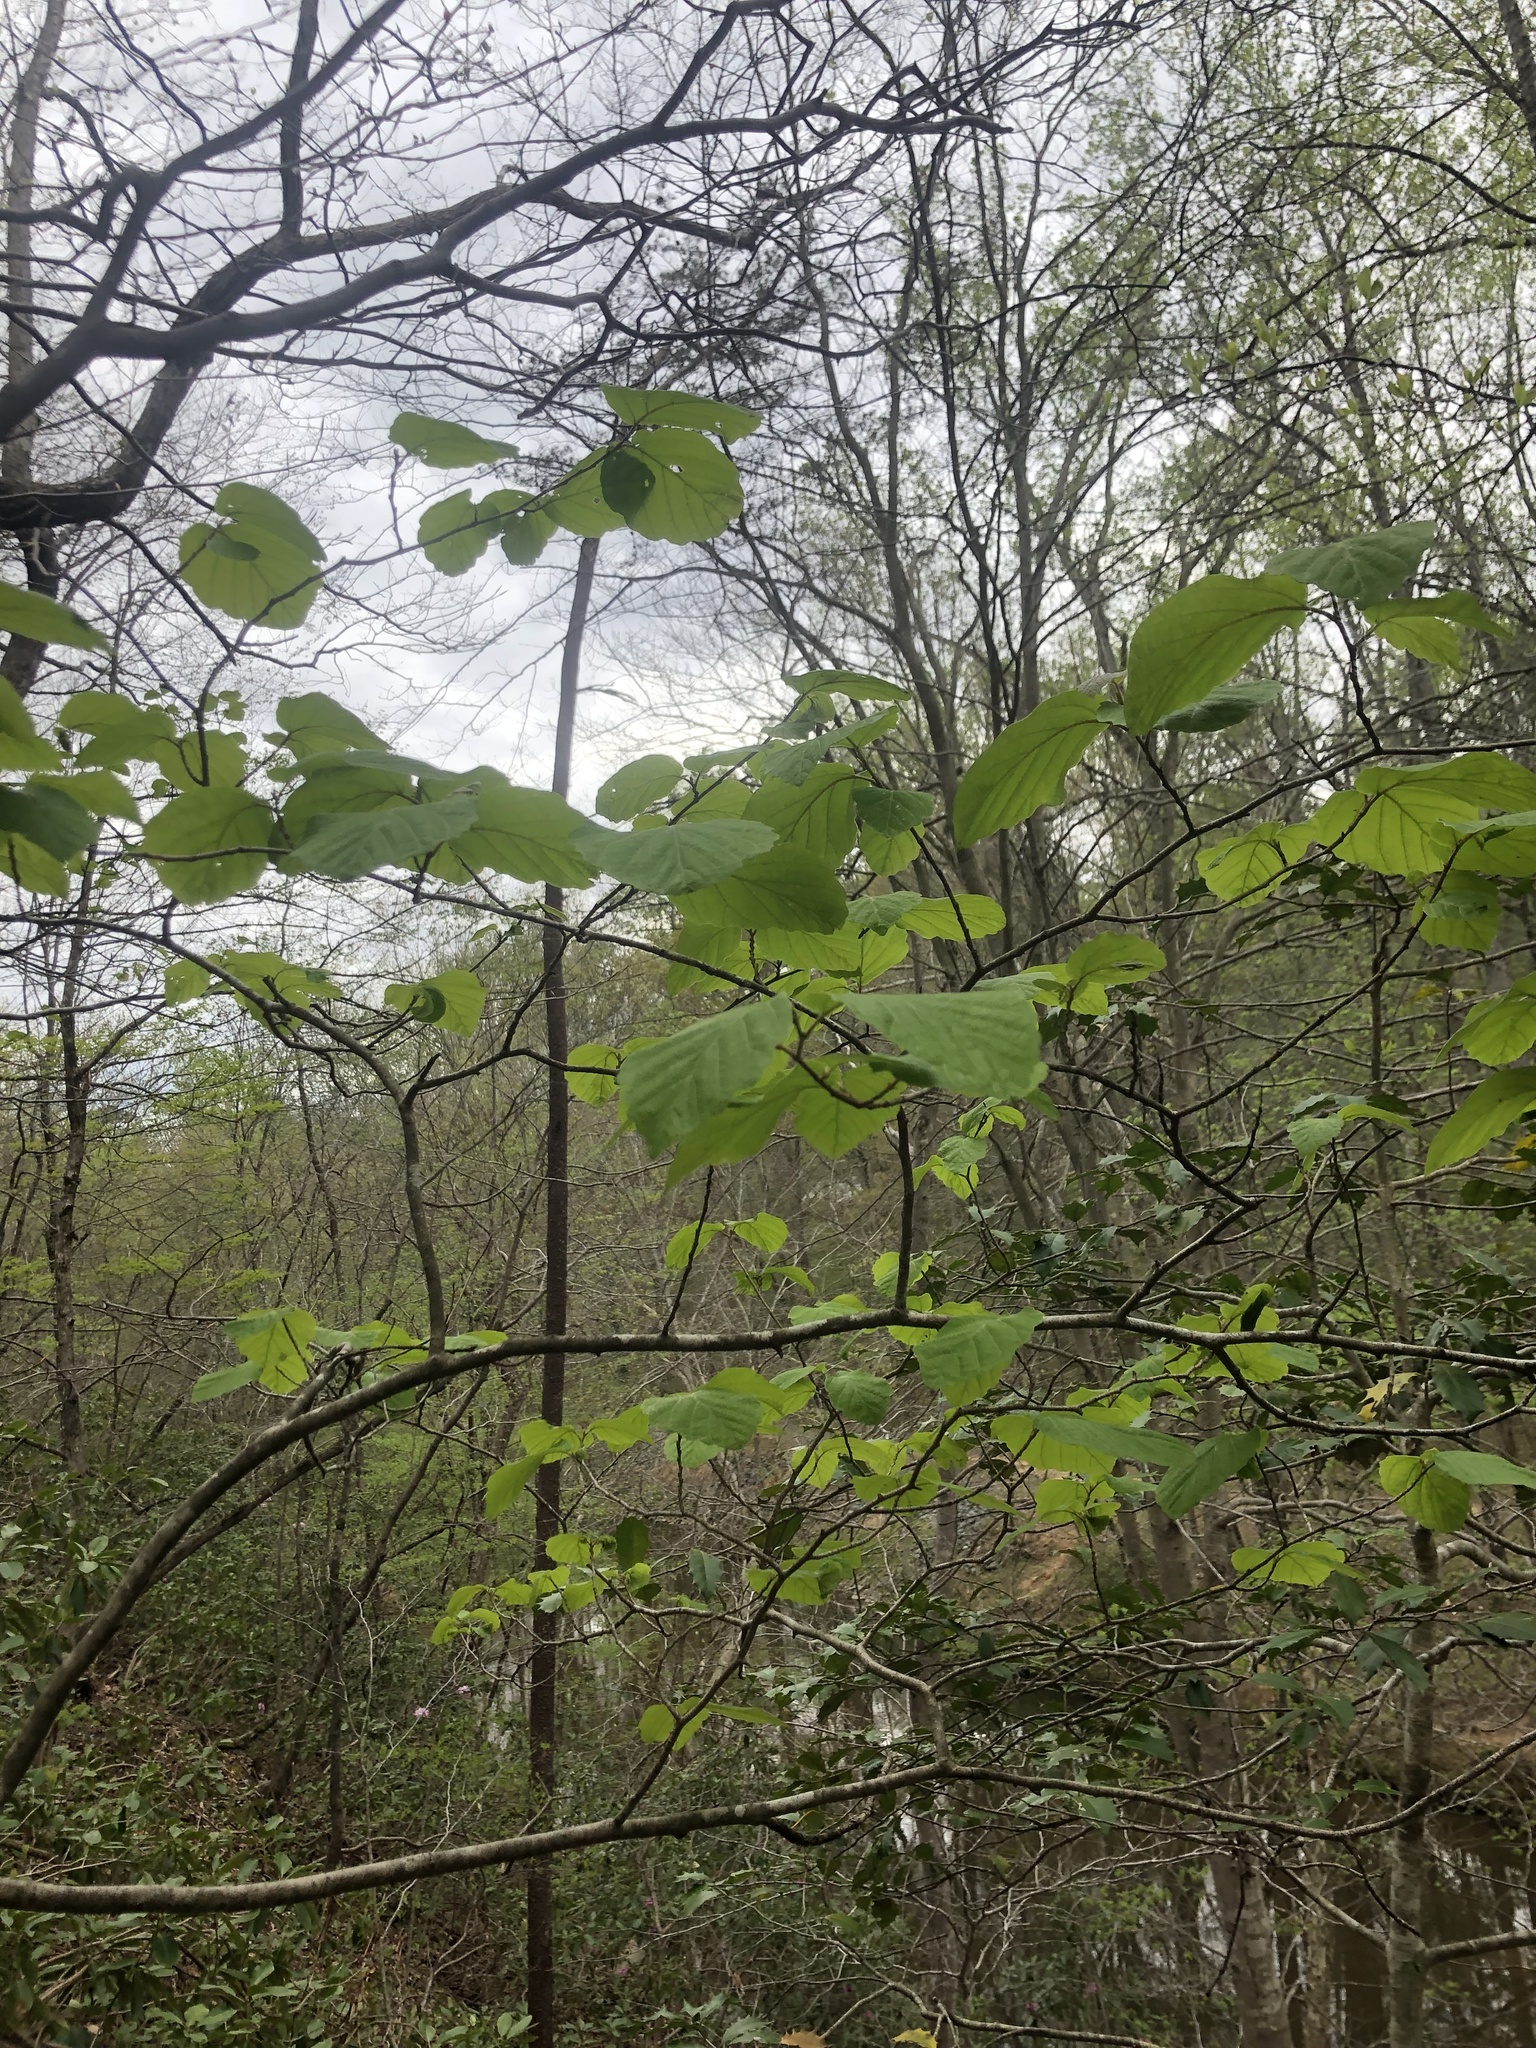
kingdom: Plantae
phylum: Tracheophyta
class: Magnoliopsida
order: Saxifragales
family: Hamamelidaceae
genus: Hamamelis
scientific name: Hamamelis virginiana
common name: Witch-hazel
